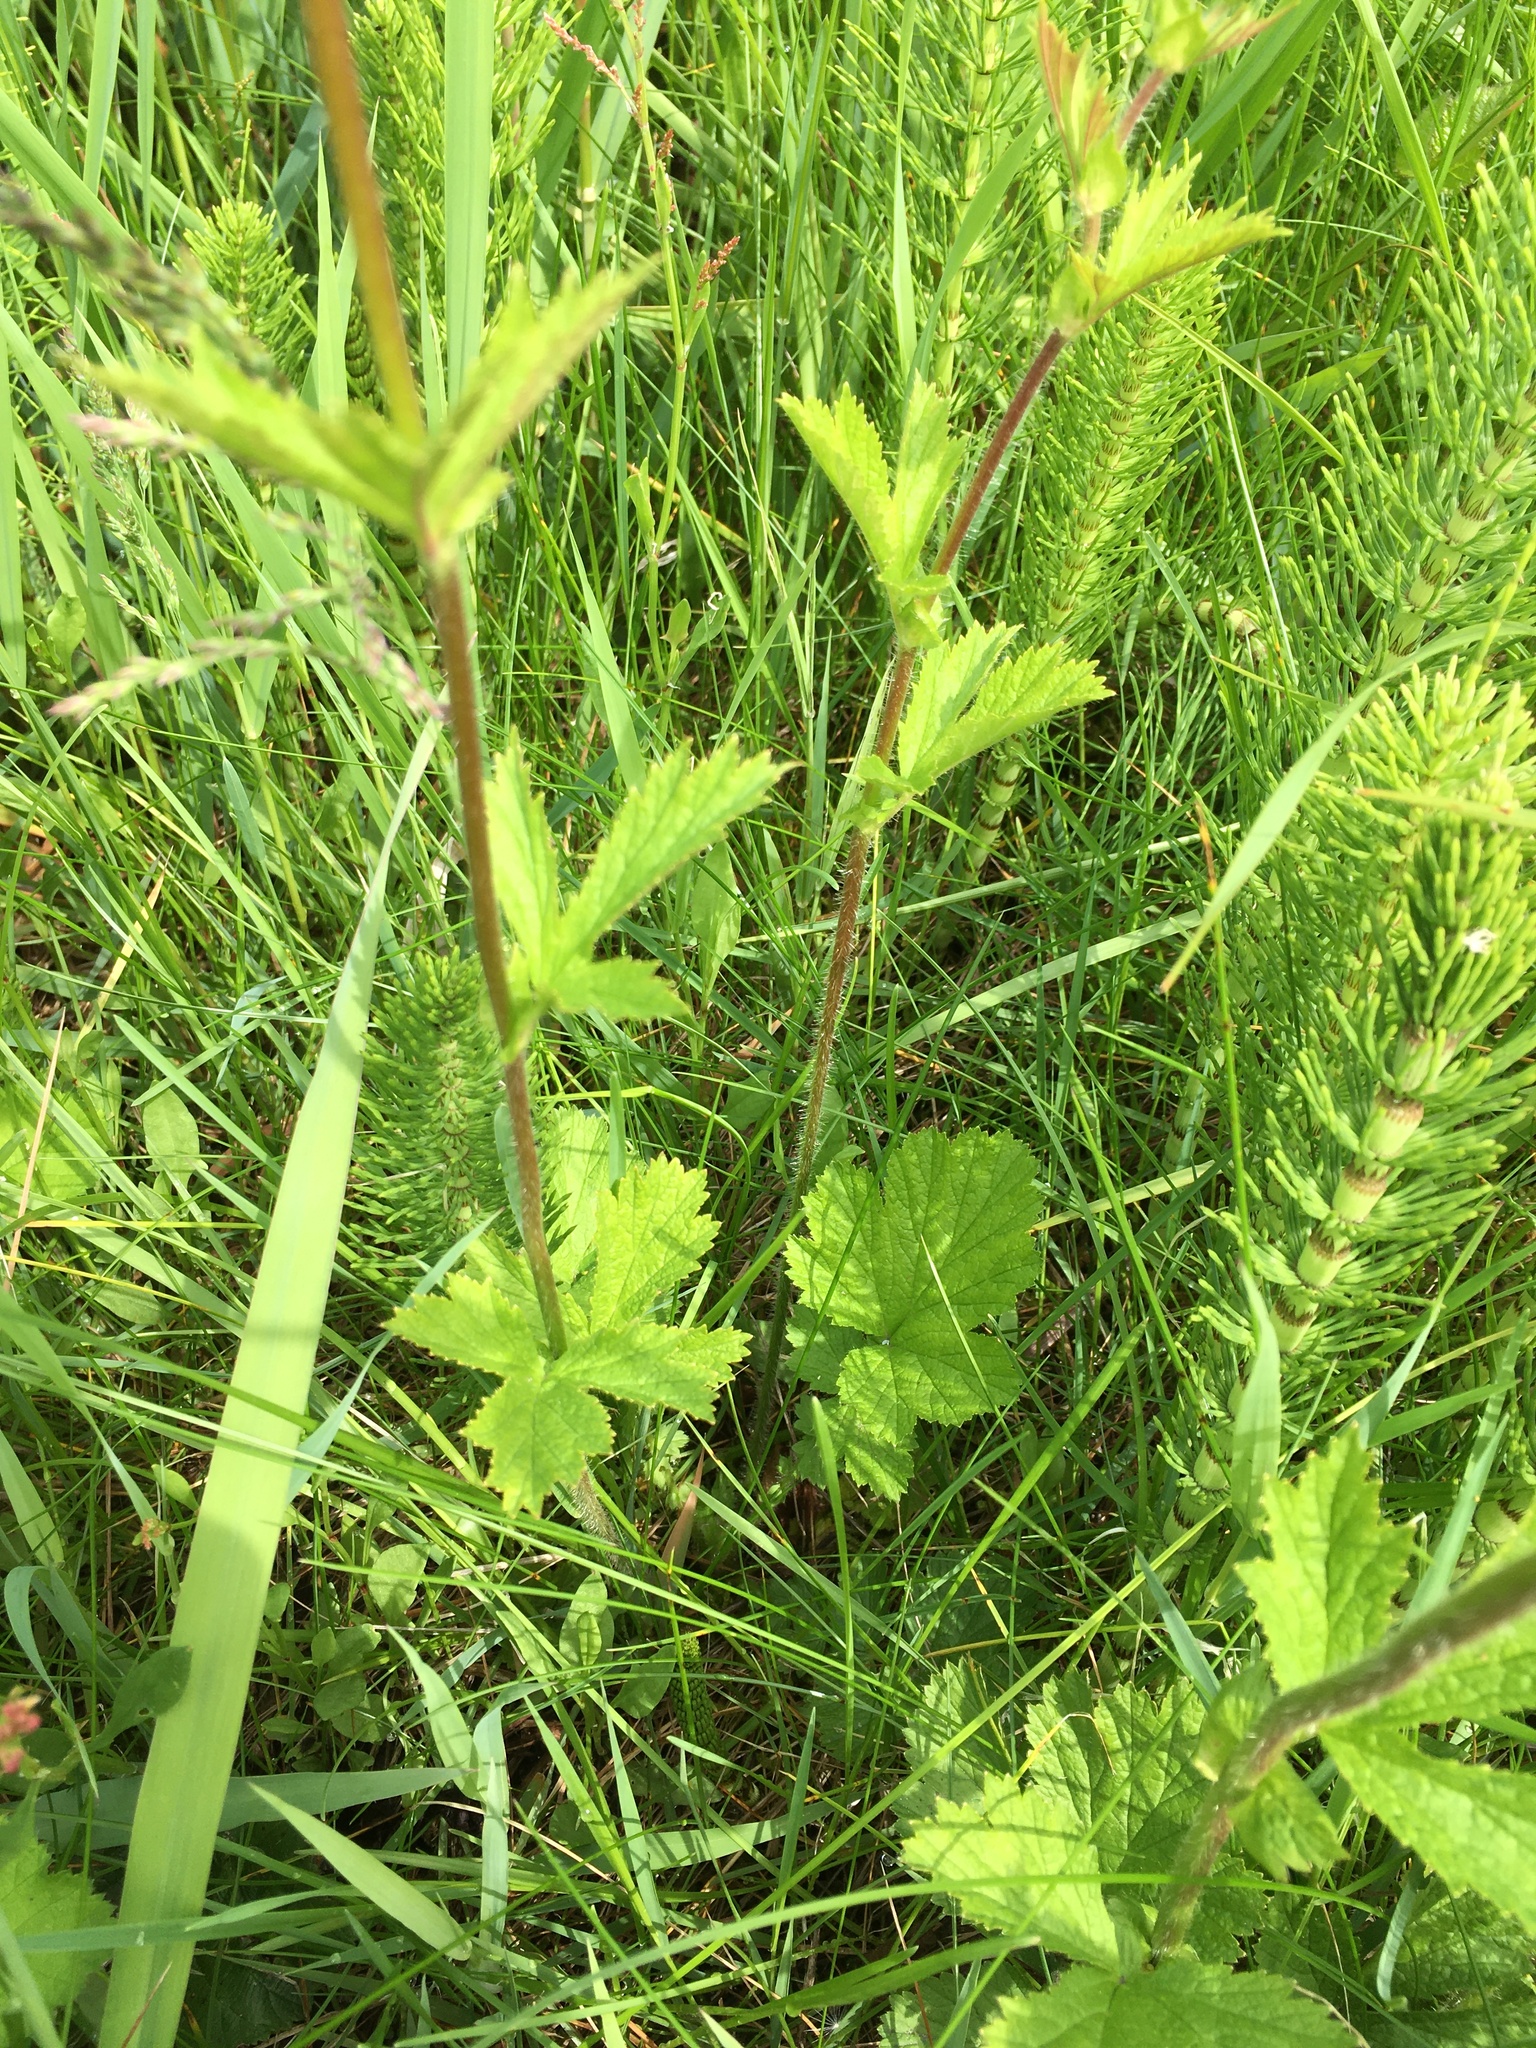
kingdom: Plantae
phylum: Tracheophyta
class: Magnoliopsida
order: Rosales
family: Rosaceae
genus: Geum
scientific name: Geum macrophyllum
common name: Large-leaved avens
